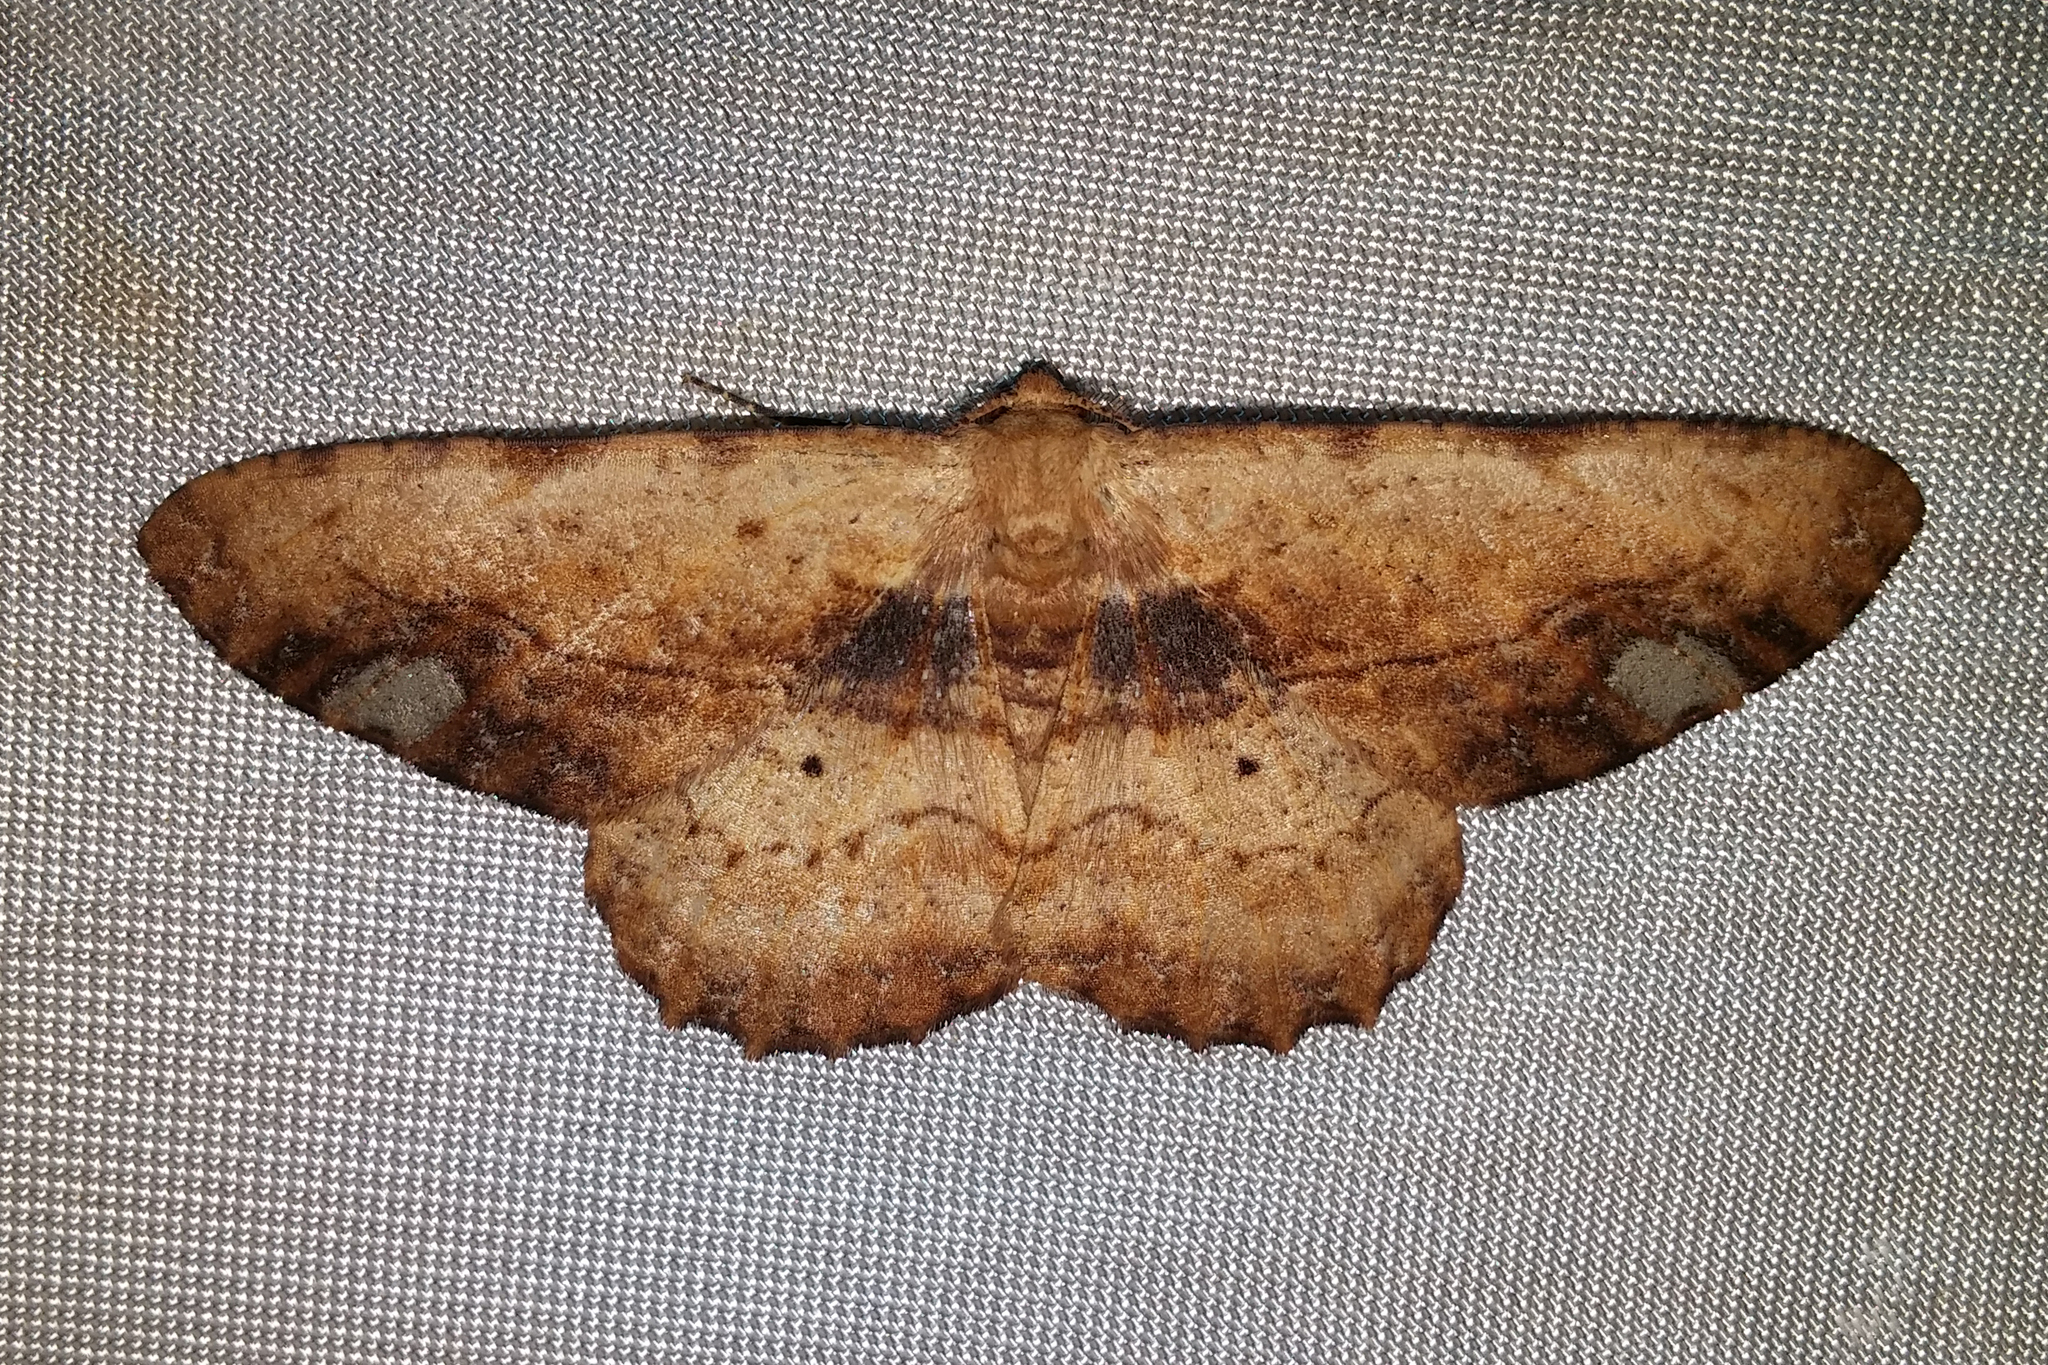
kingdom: Animalia
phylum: Arthropoda
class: Insecta
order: Lepidoptera
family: Geometridae
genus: Apophyga
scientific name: Apophyga griseiplaga
